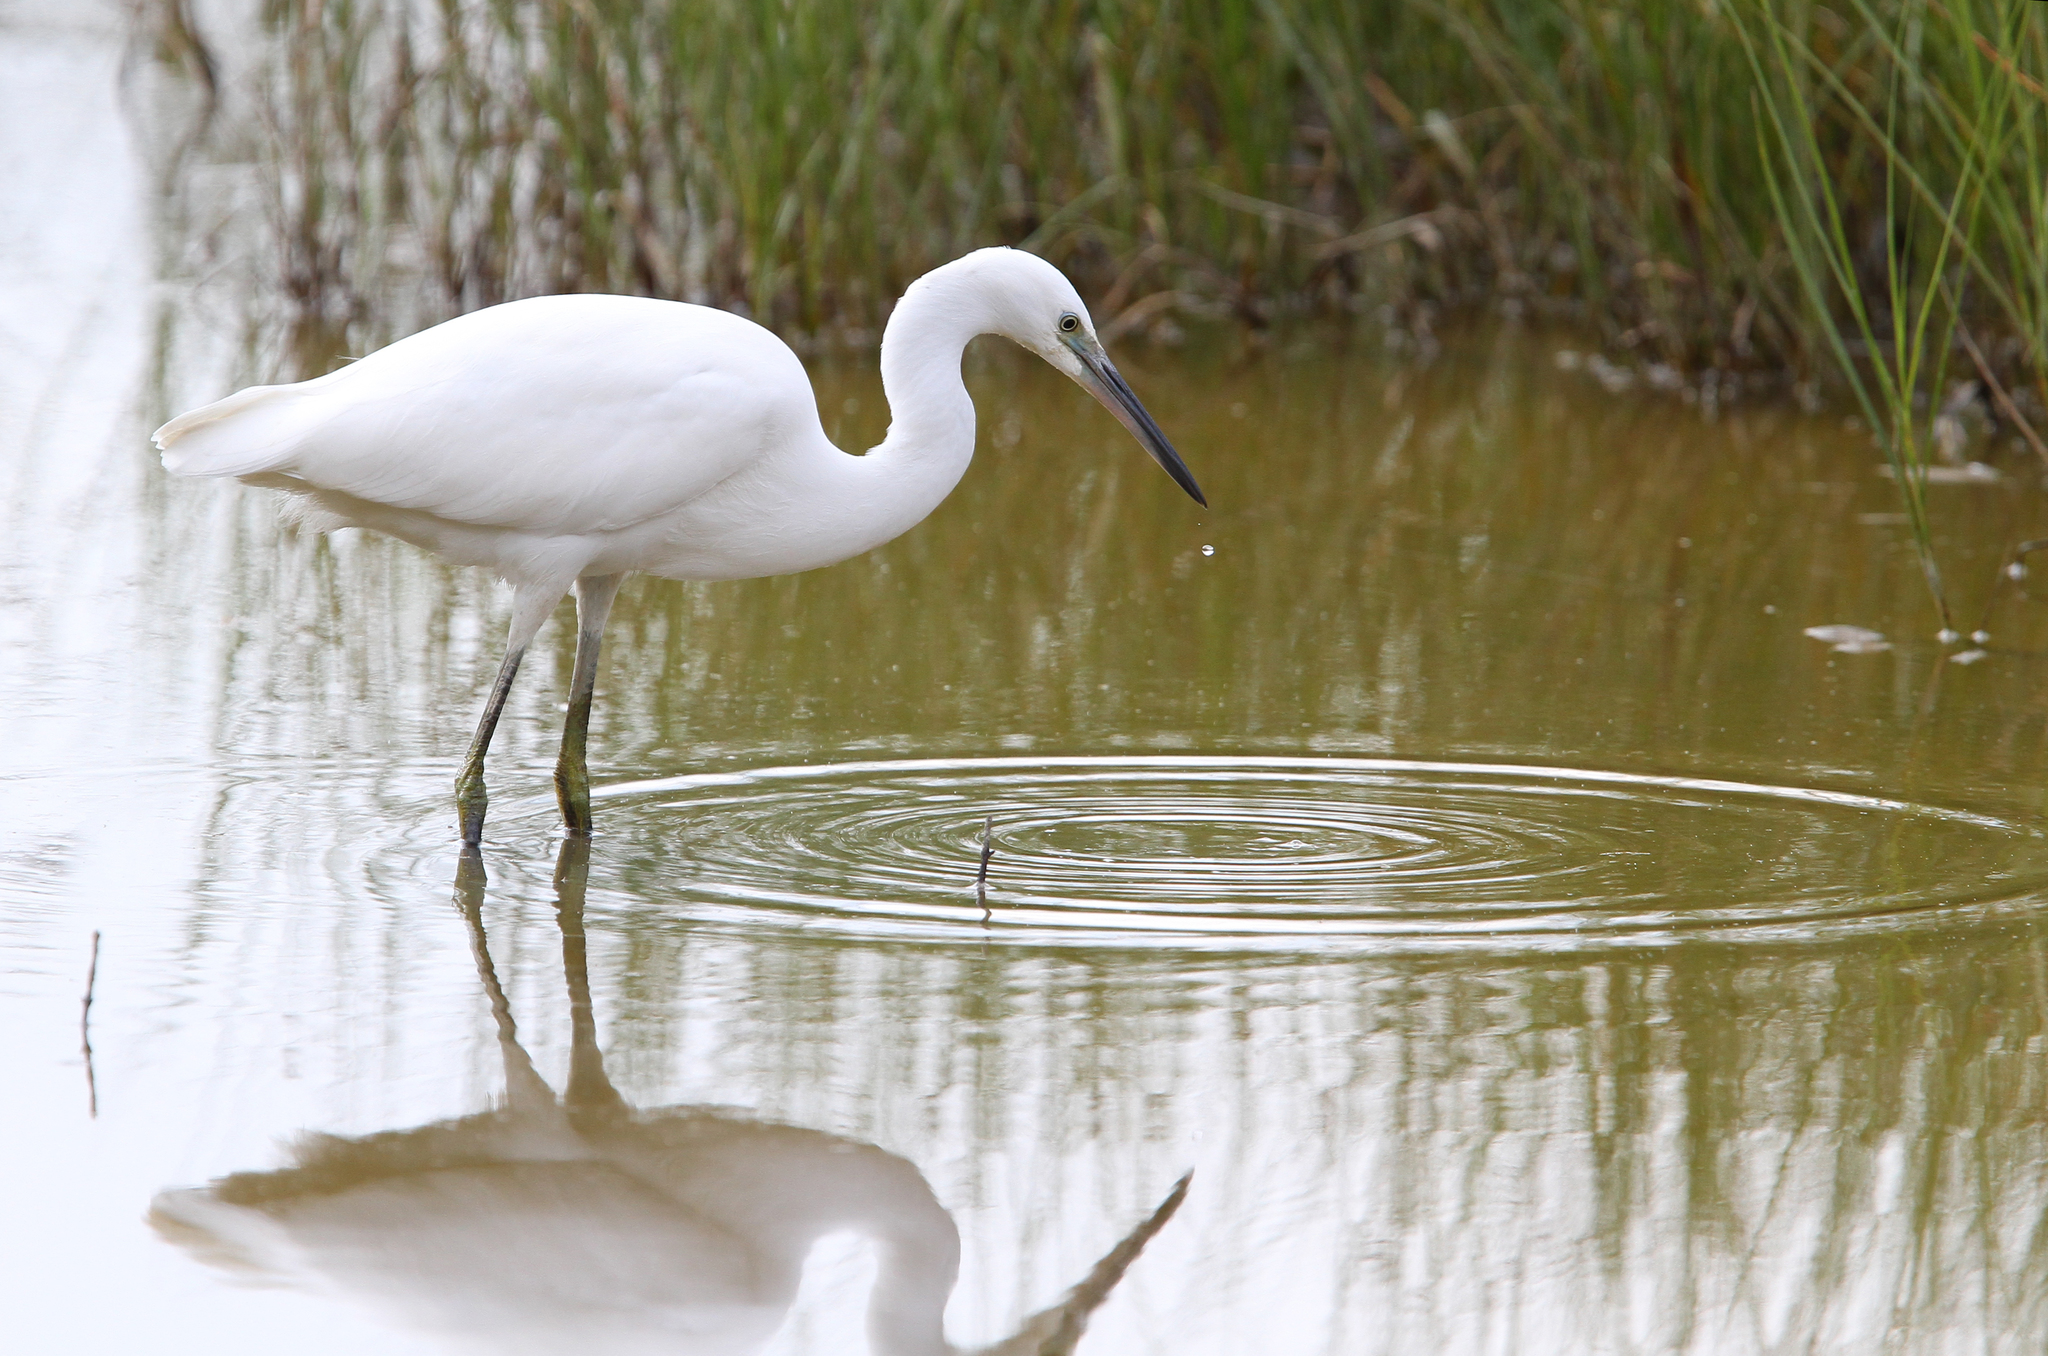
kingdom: Animalia
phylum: Chordata
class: Aves
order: Pelecaniformes
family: Ardeidae
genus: Egretta
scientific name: Egretta garzetta
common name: Little egret
